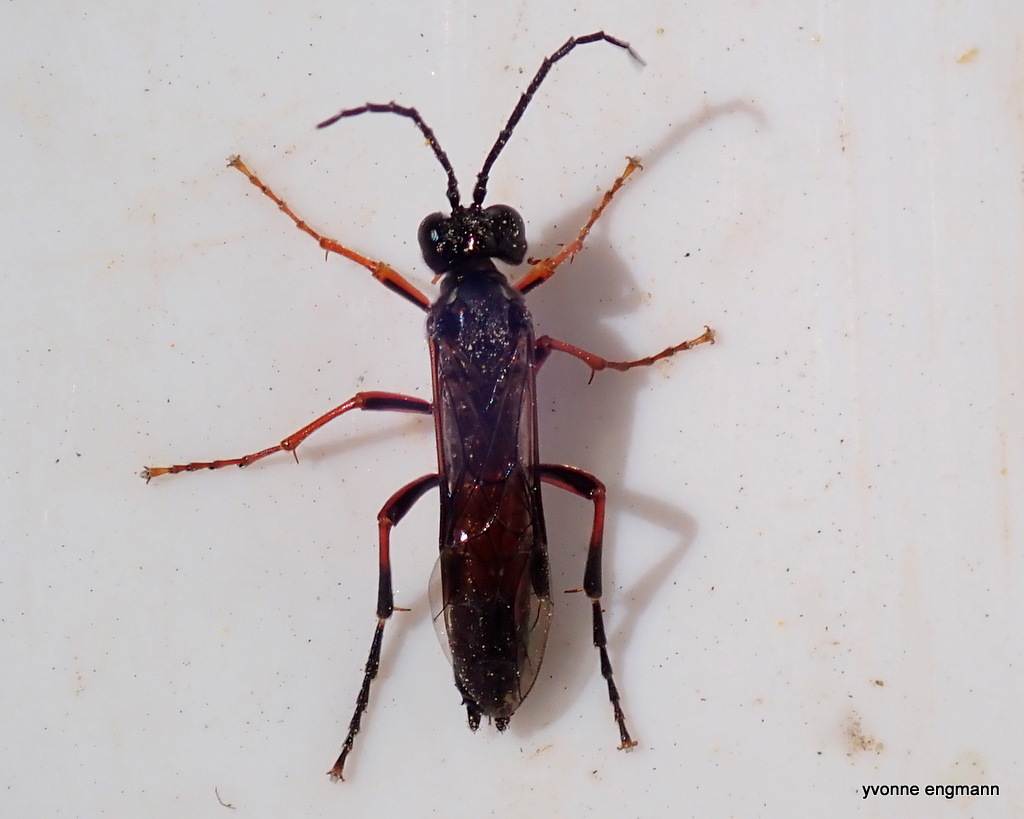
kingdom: Animalia
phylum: Arthropoda
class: Insecta
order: Hymenoptera
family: Tenthredinidae
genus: Tenthredo
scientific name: Tenthredo atra
